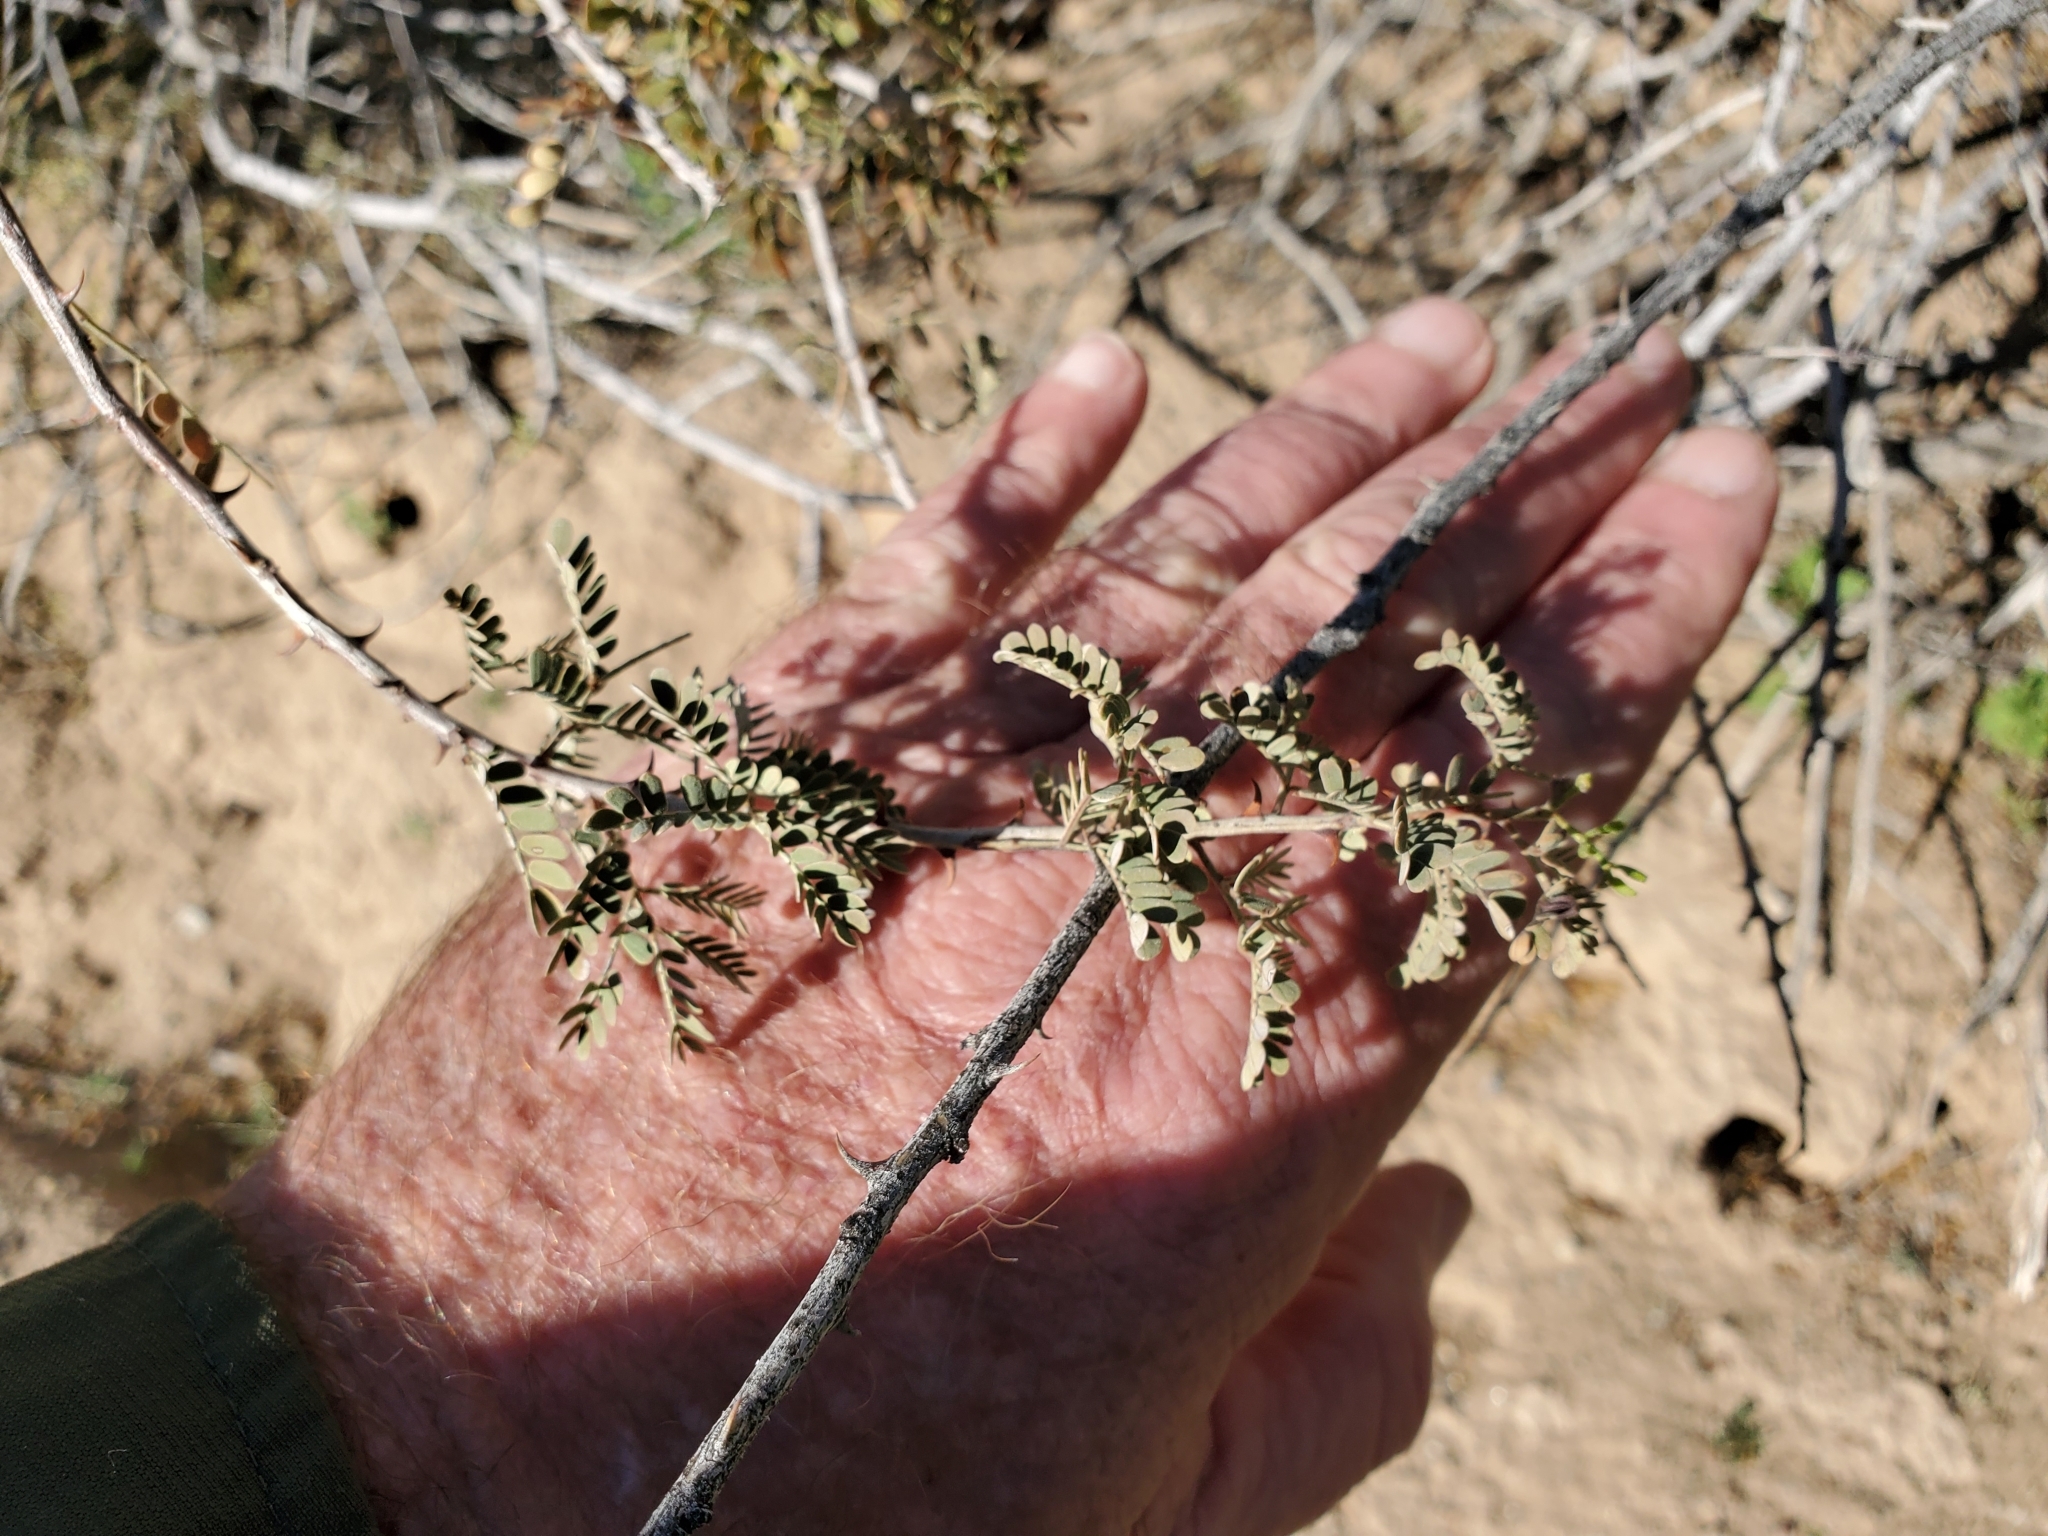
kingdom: Plantae
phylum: Tracheophyta
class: Magnoliopsida
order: Fabales
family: Fabaceae
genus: Senegalia
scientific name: Senegalia greggii
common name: Texas-mimosa
